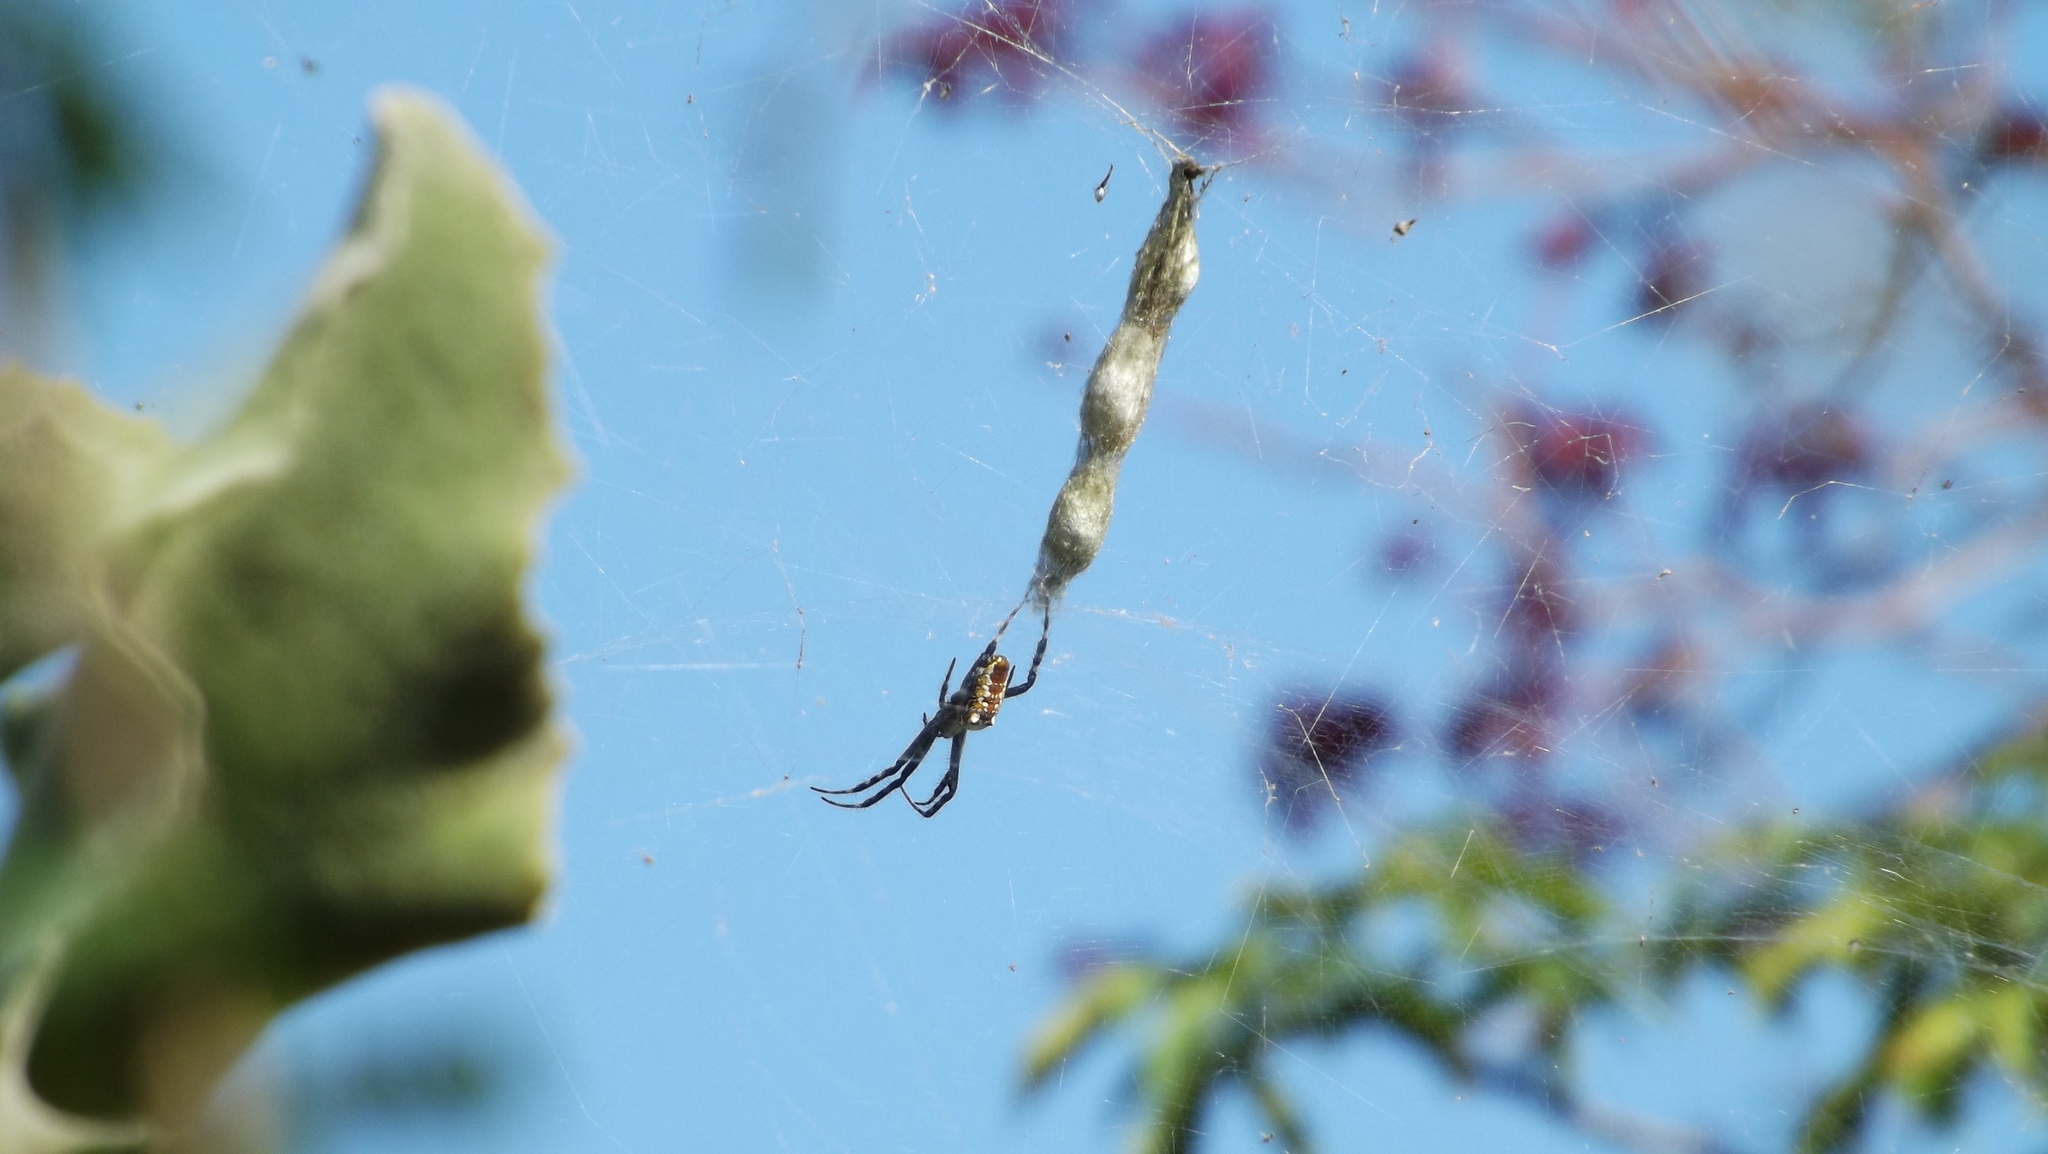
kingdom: Chromista
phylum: Ochrophyta
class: Dictyochophyceae
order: Pedinellales
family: Cyrtophoraceae
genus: Cyrtophora
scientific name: Cyrtophora moluccensis
